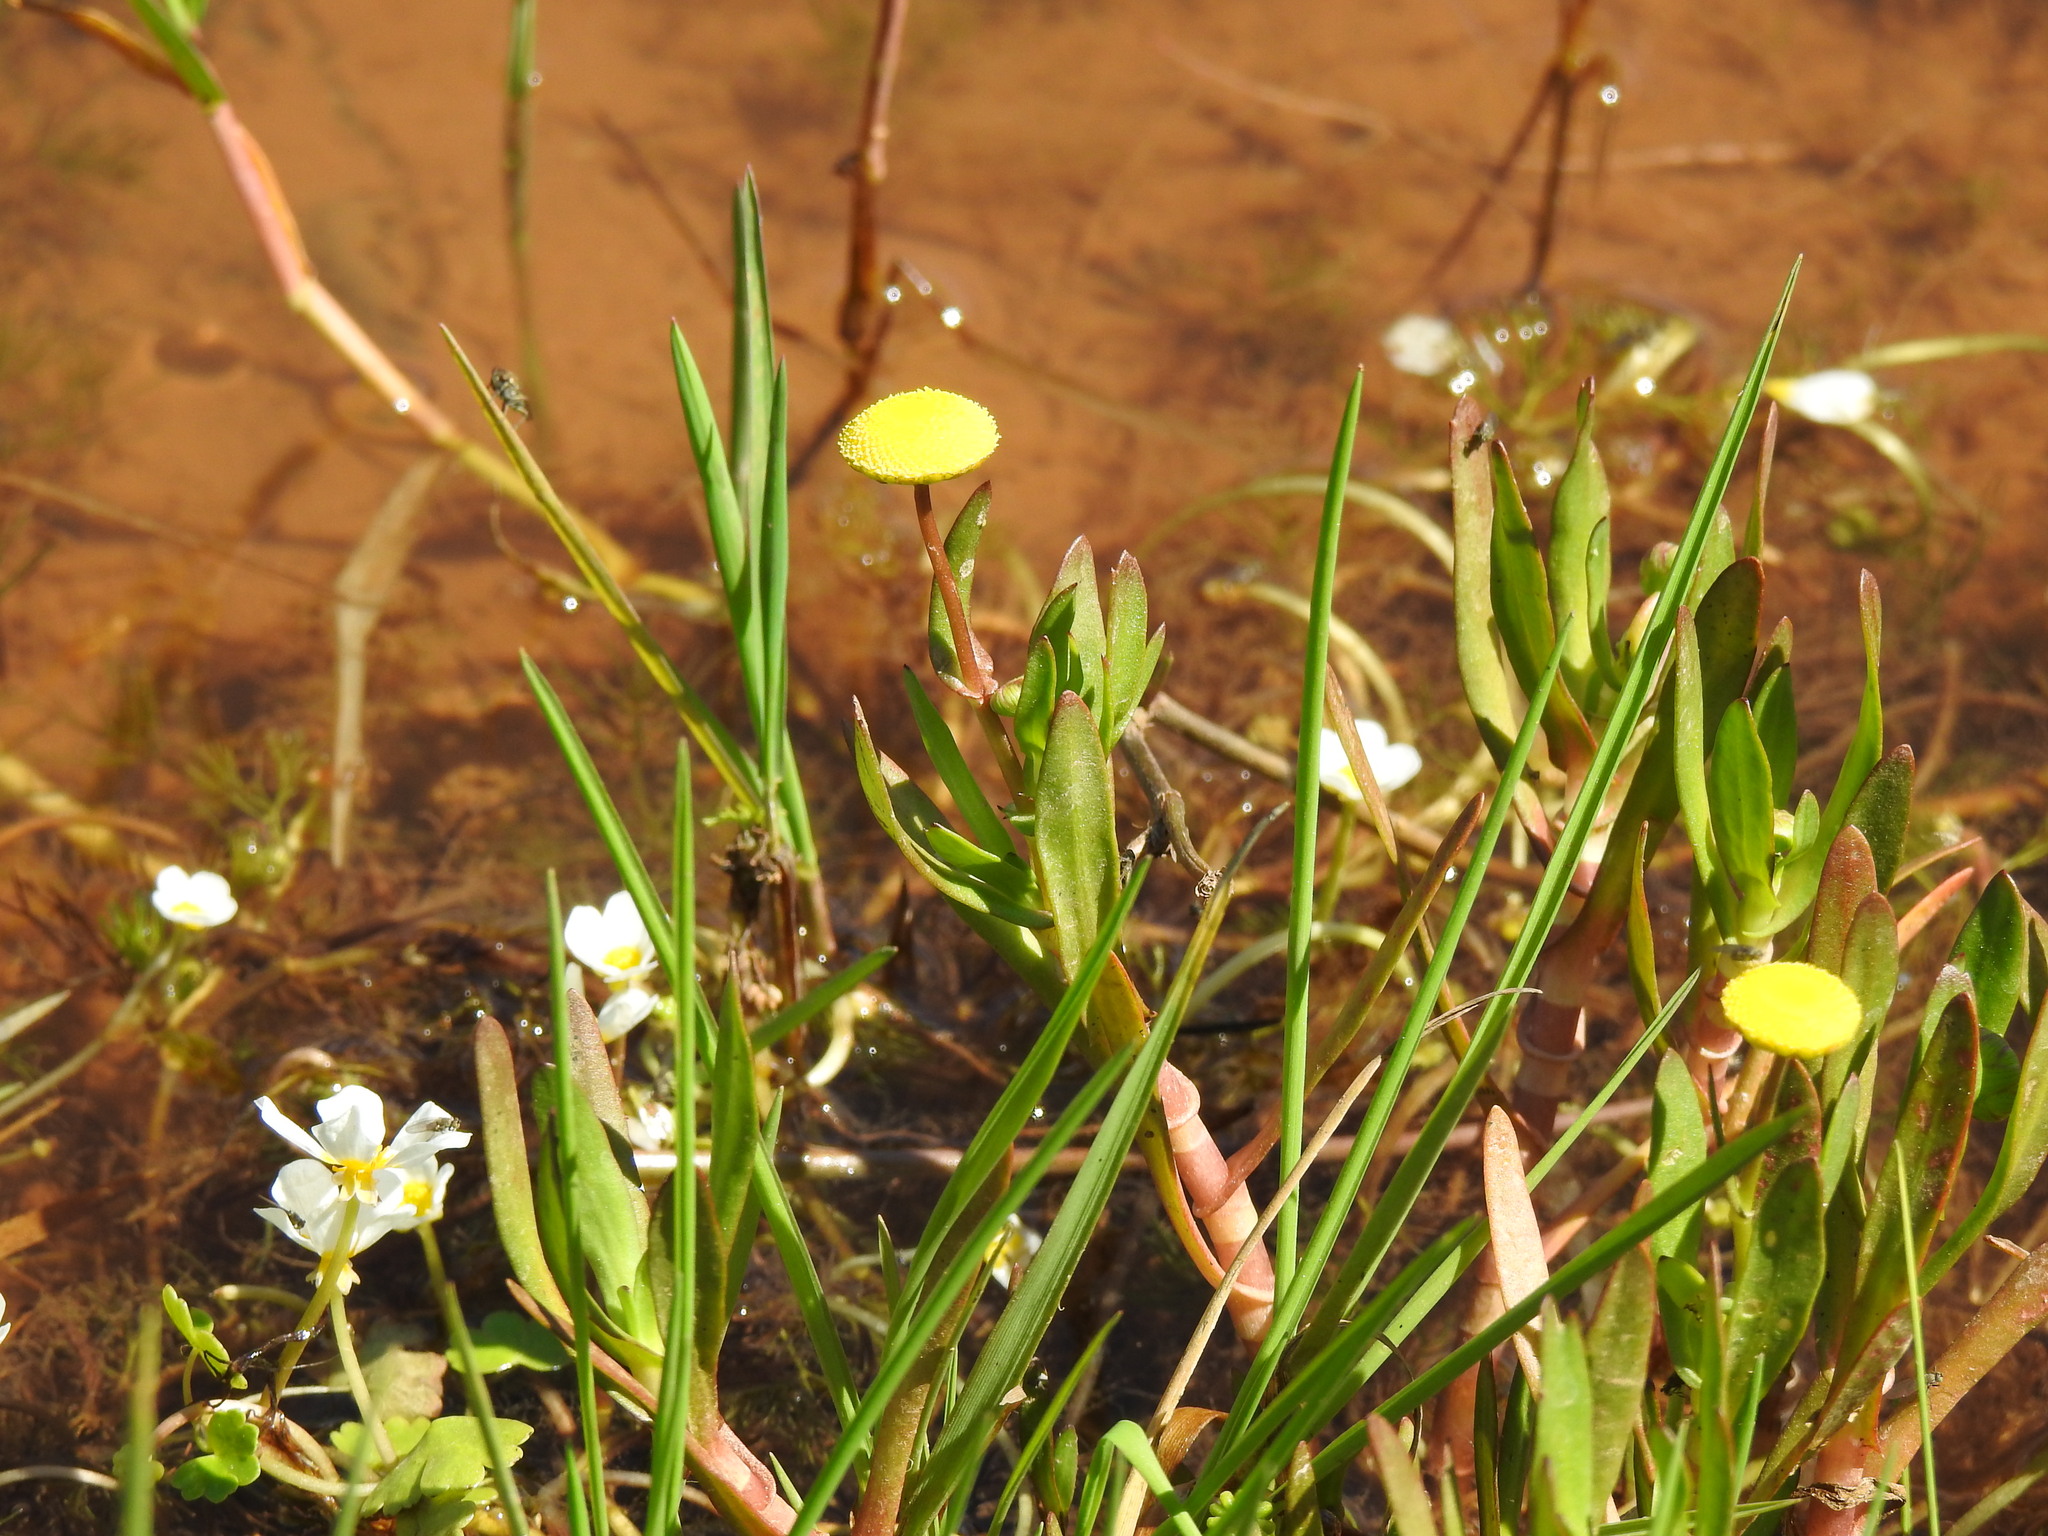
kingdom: Plantae
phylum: Tracheophyta
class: Magnoliopsida
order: Asterales
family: Asteraceae
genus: Cotula
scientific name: Cotula coronopifolia
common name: Buttonweed
